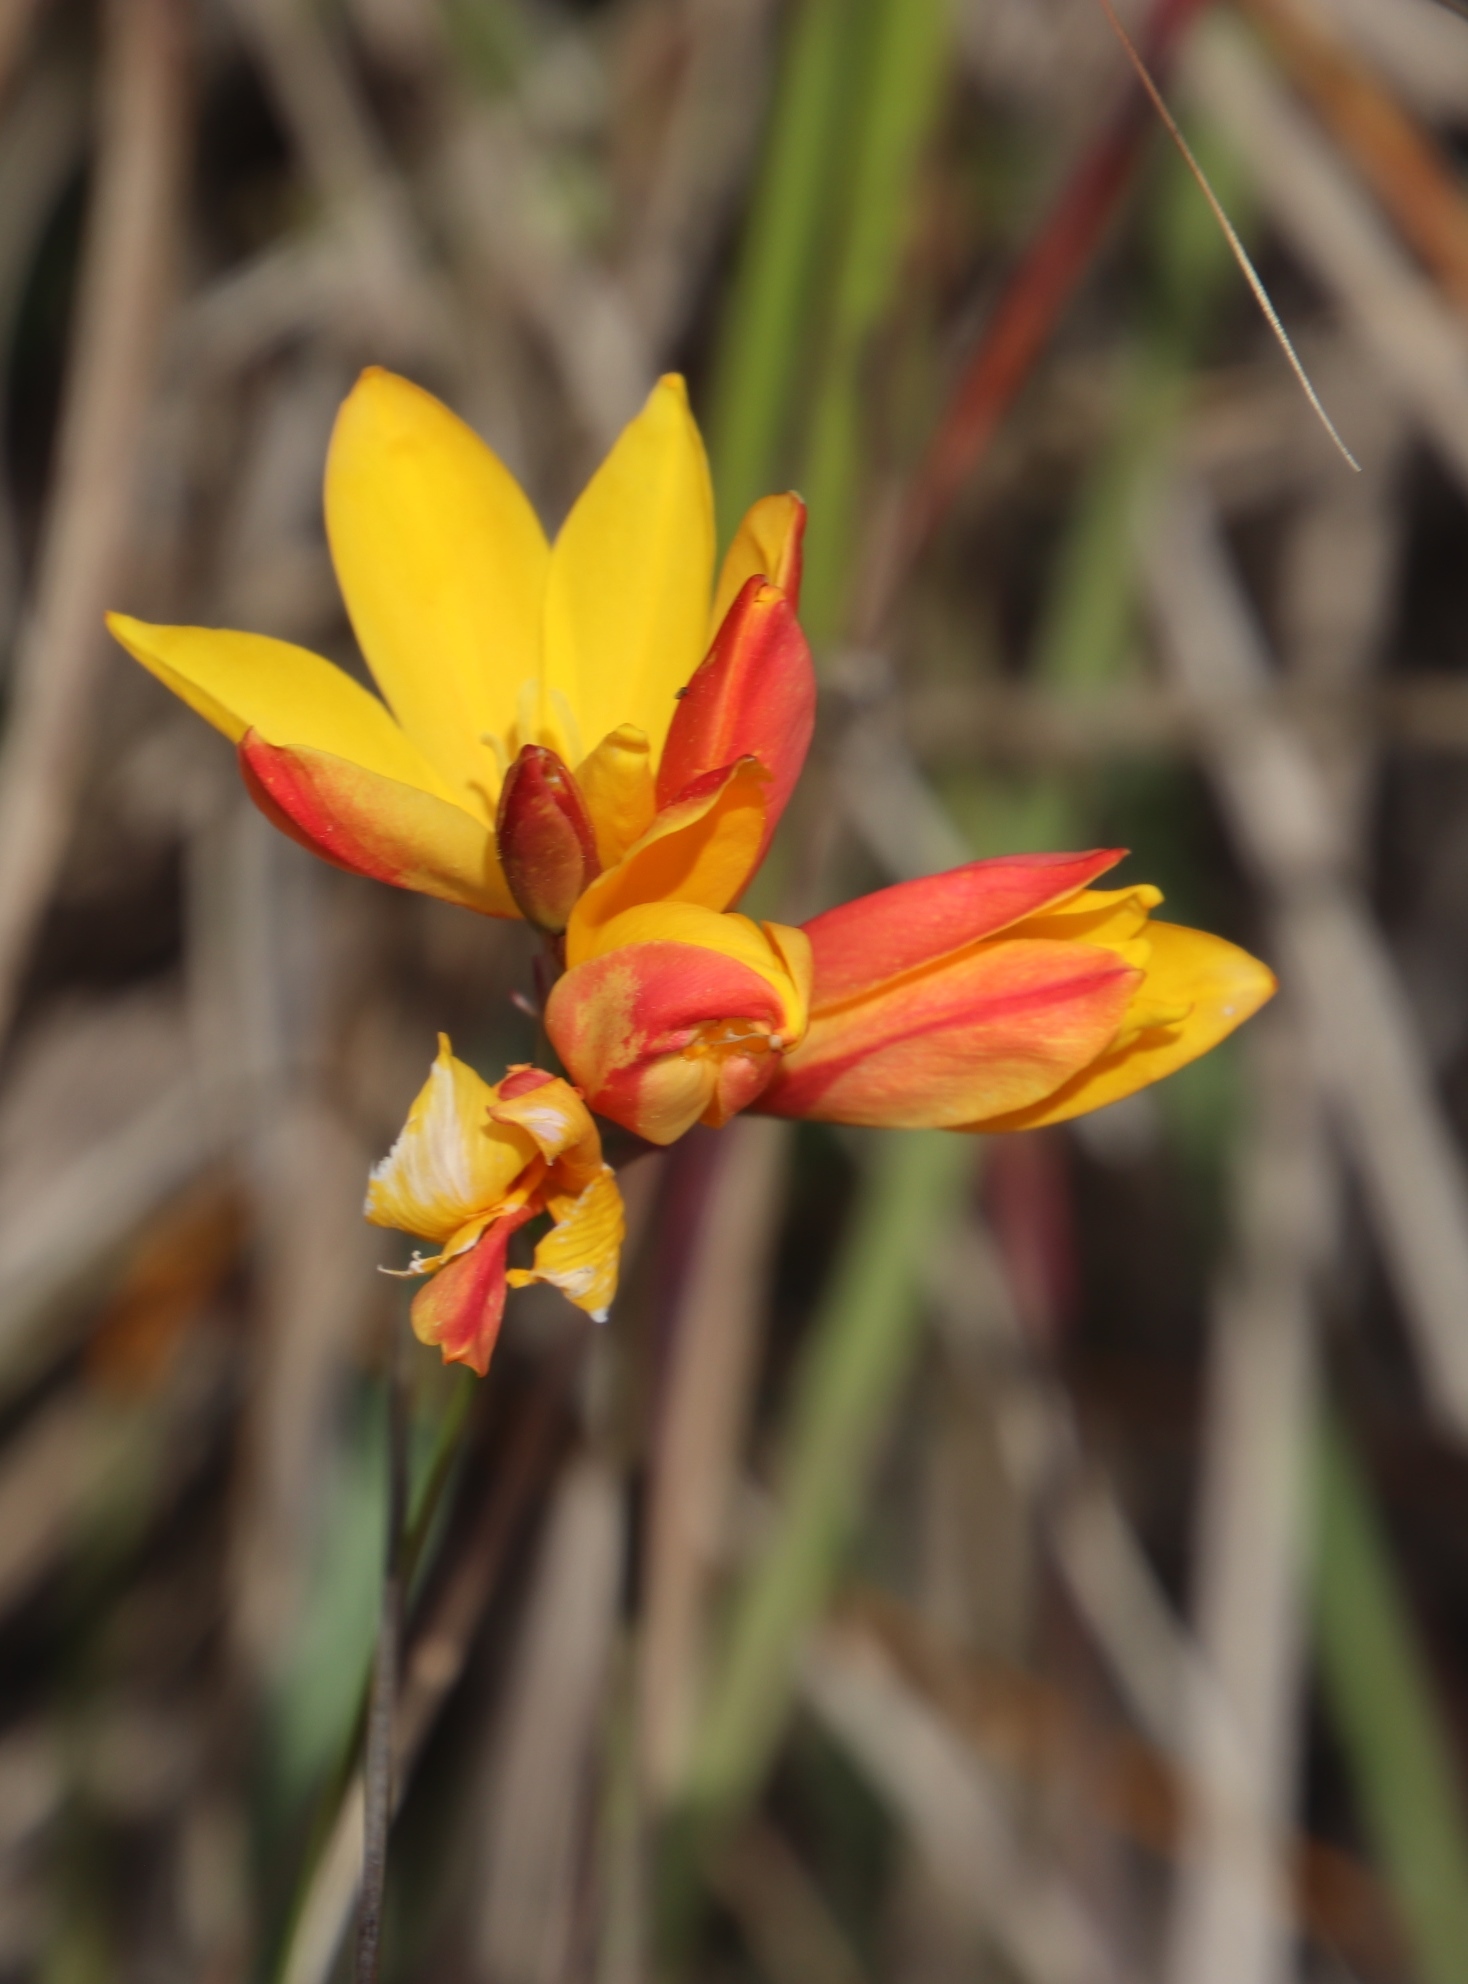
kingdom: Plantae
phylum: Tracheophyta
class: Liliopsida
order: Asparagales
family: Iridaceae
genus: Ixia
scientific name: Ixia dubia
